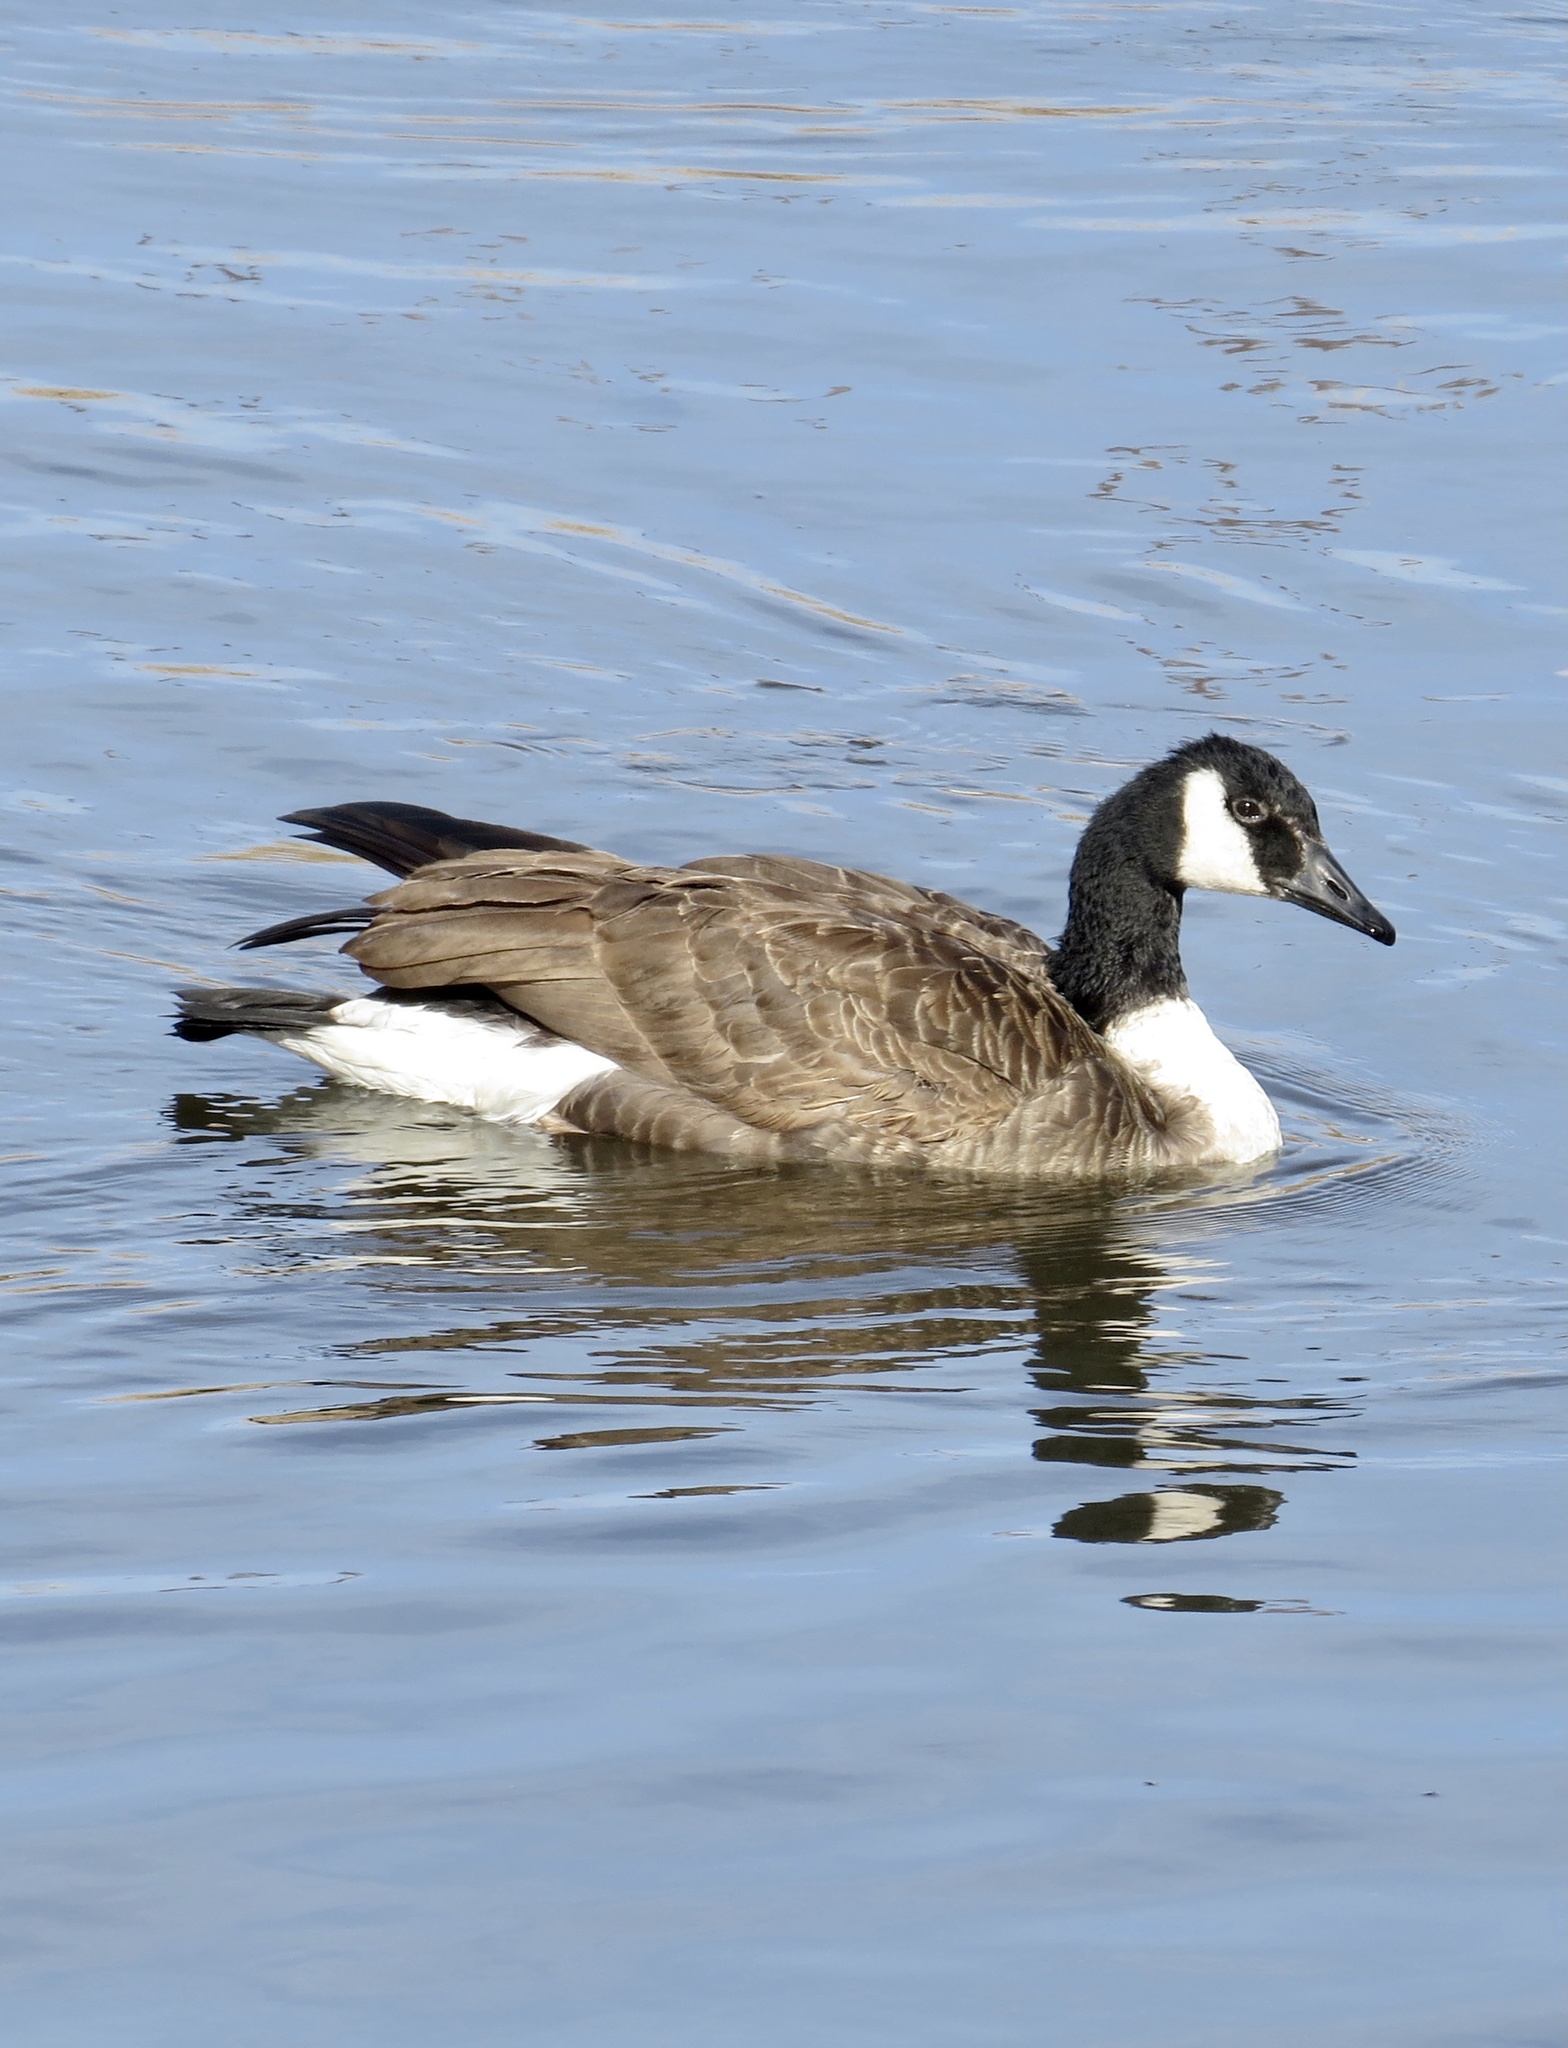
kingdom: Animalia
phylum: Chordata
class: Aves
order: Anseriformes
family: Anatidae
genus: Branta
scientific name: Branta canadensis
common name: Canada goose
